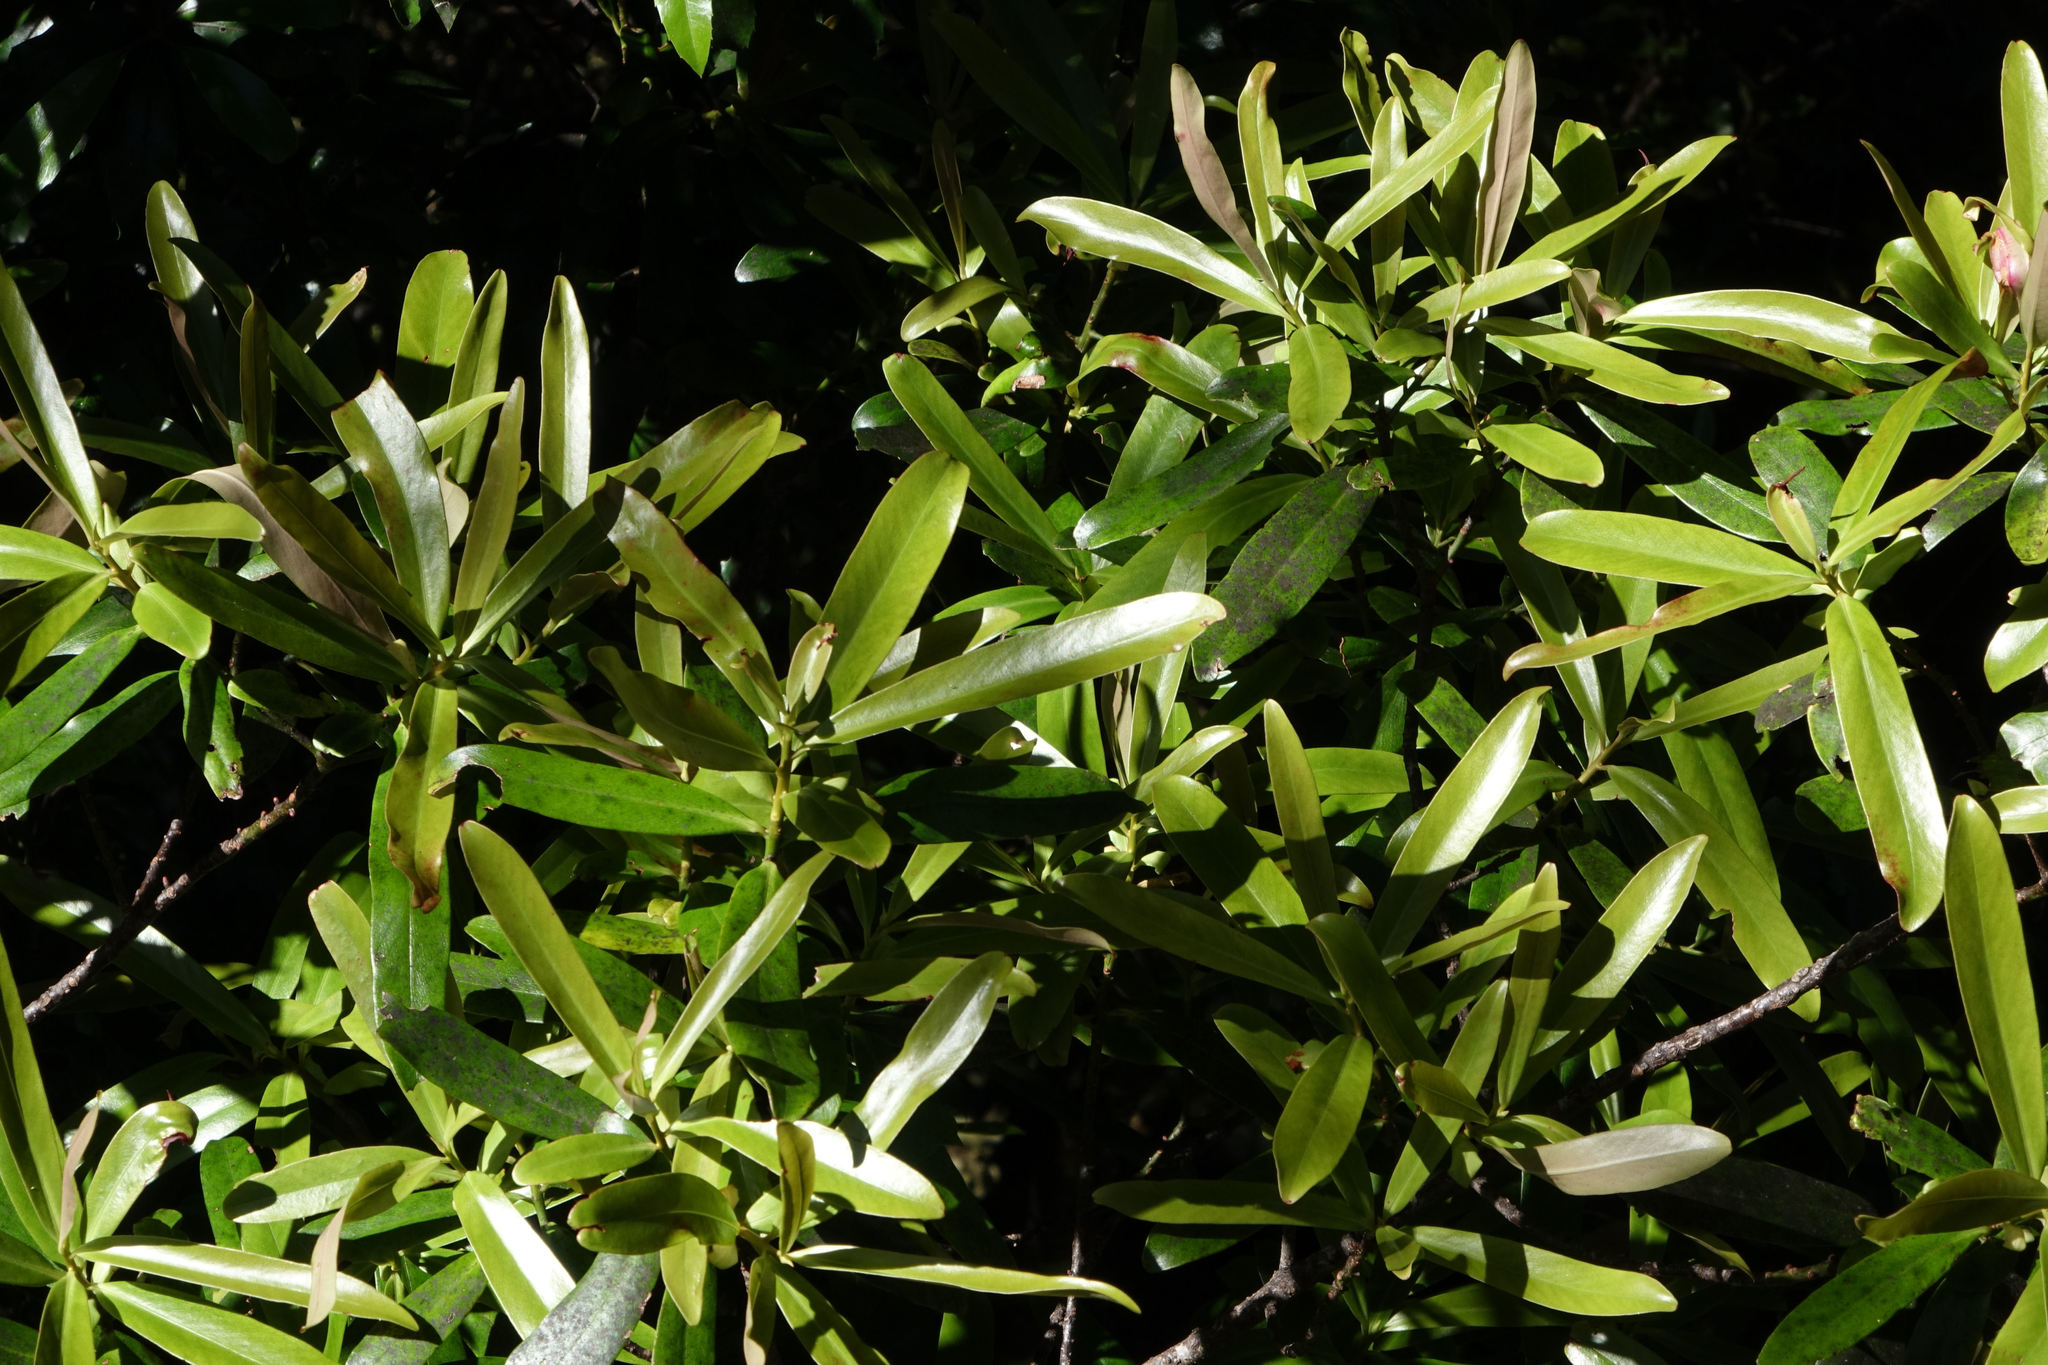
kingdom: Plantae
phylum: Tracheophyta
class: Magnoliopsida
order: Ericales
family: Primulaceae
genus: Myrsine
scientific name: Myrsine salicina
